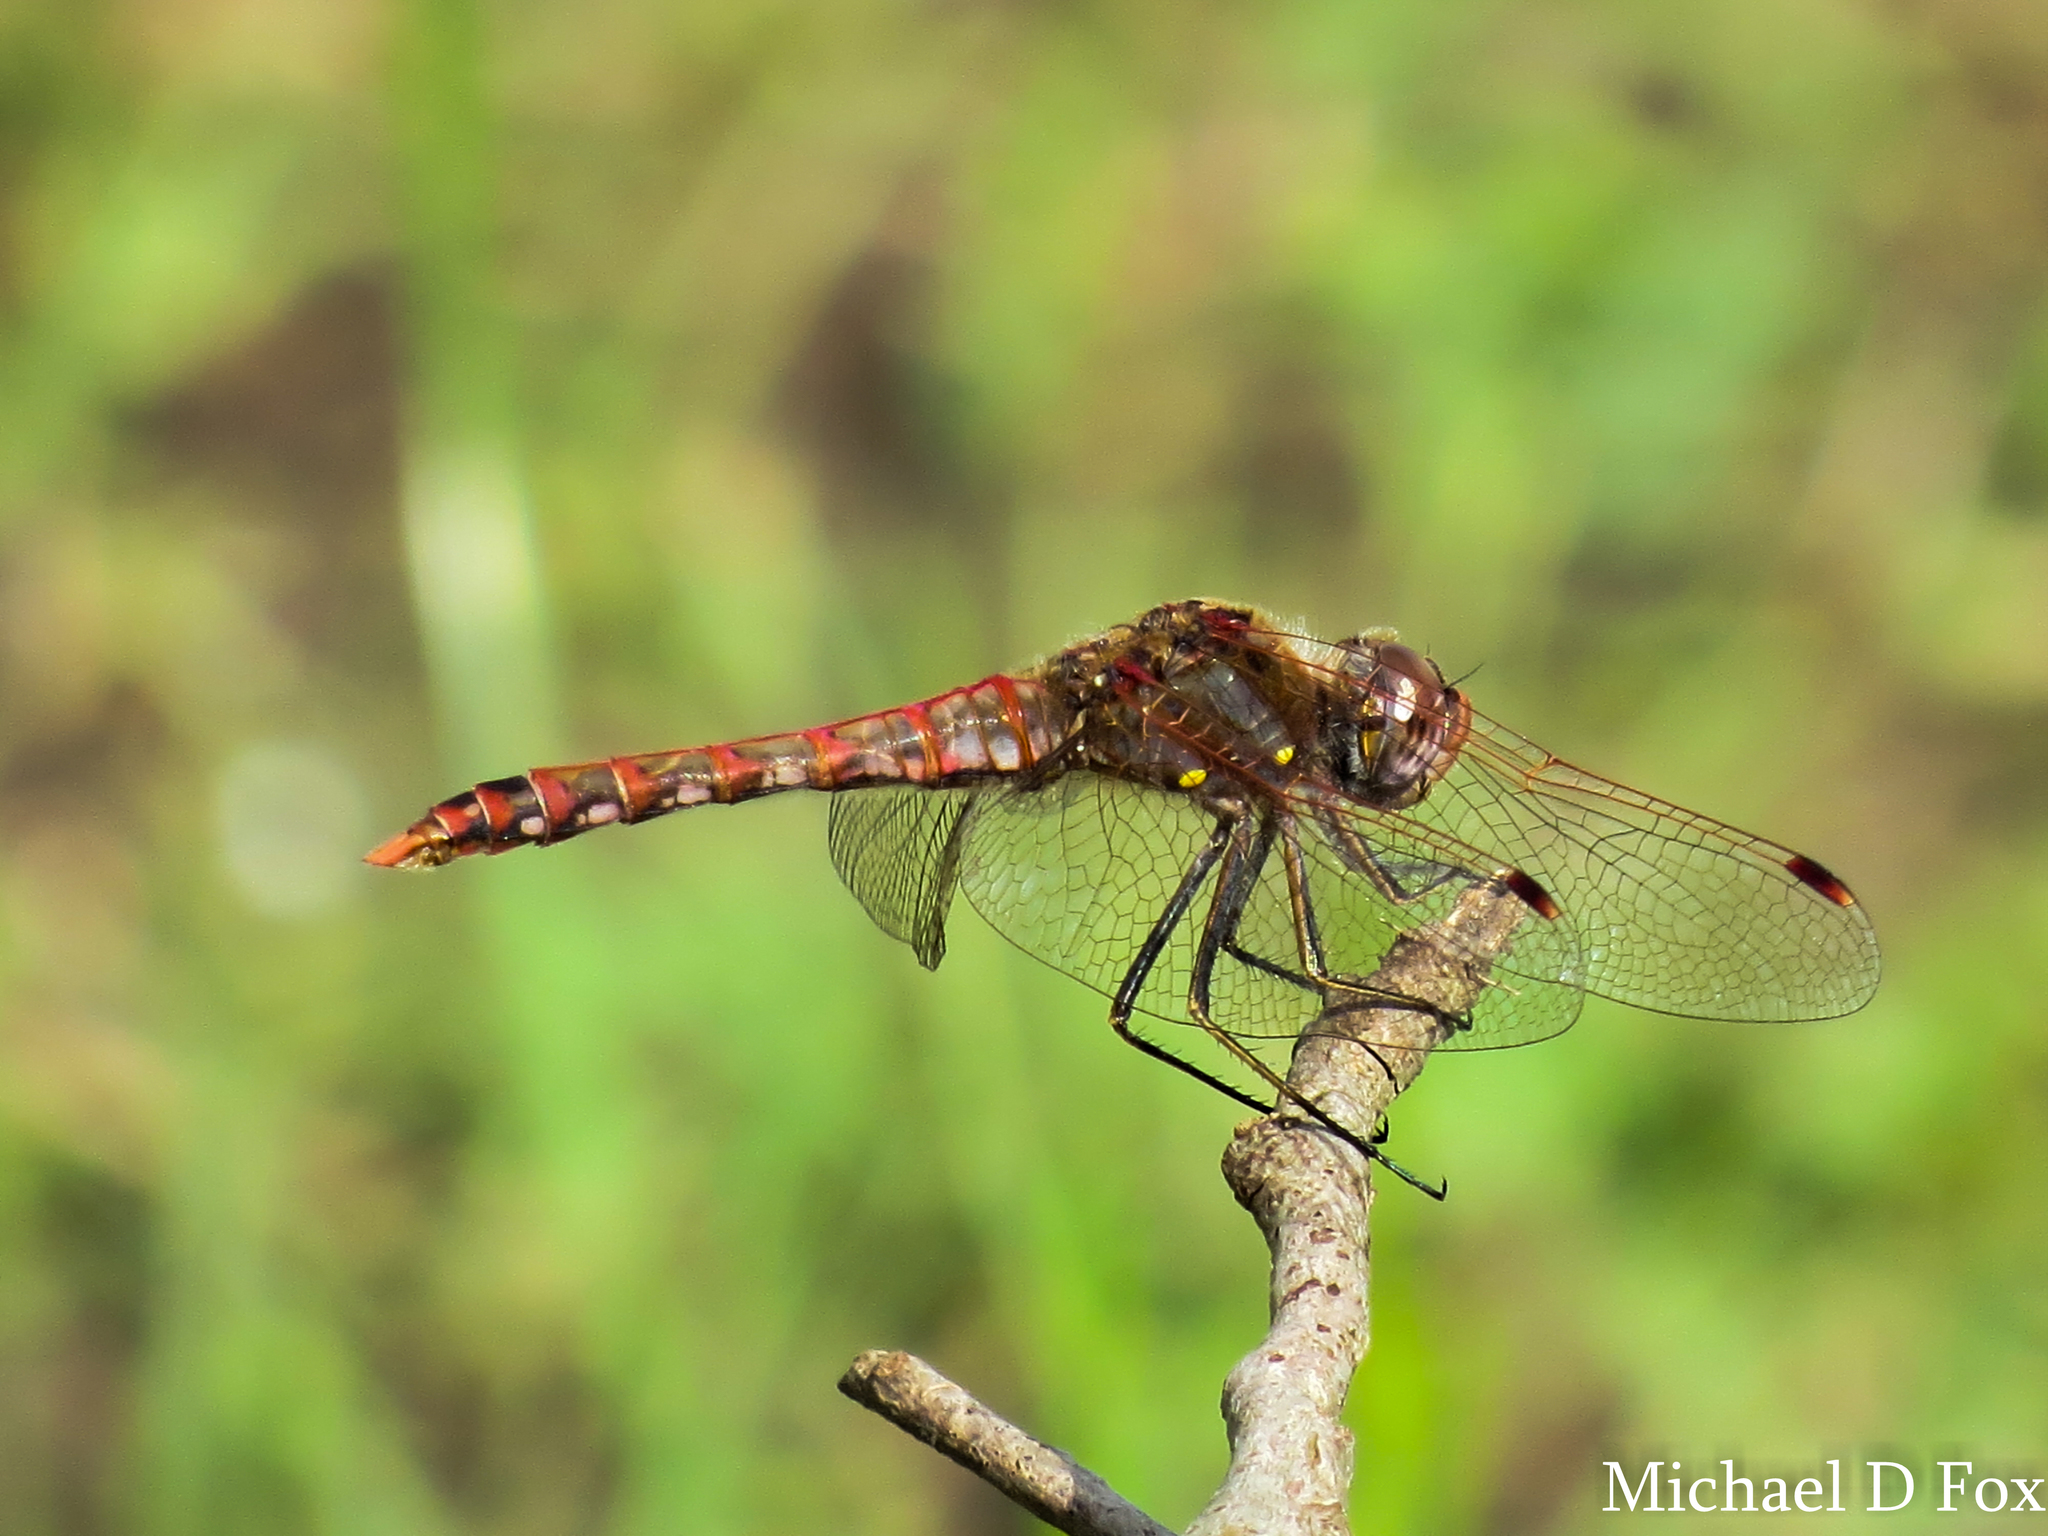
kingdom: Animalia
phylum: Arthropoda
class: Insecta
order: Odonata
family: Libellulidae
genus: Sympetrum
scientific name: Sympetrum corruptum
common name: Variegated meadowhawk
